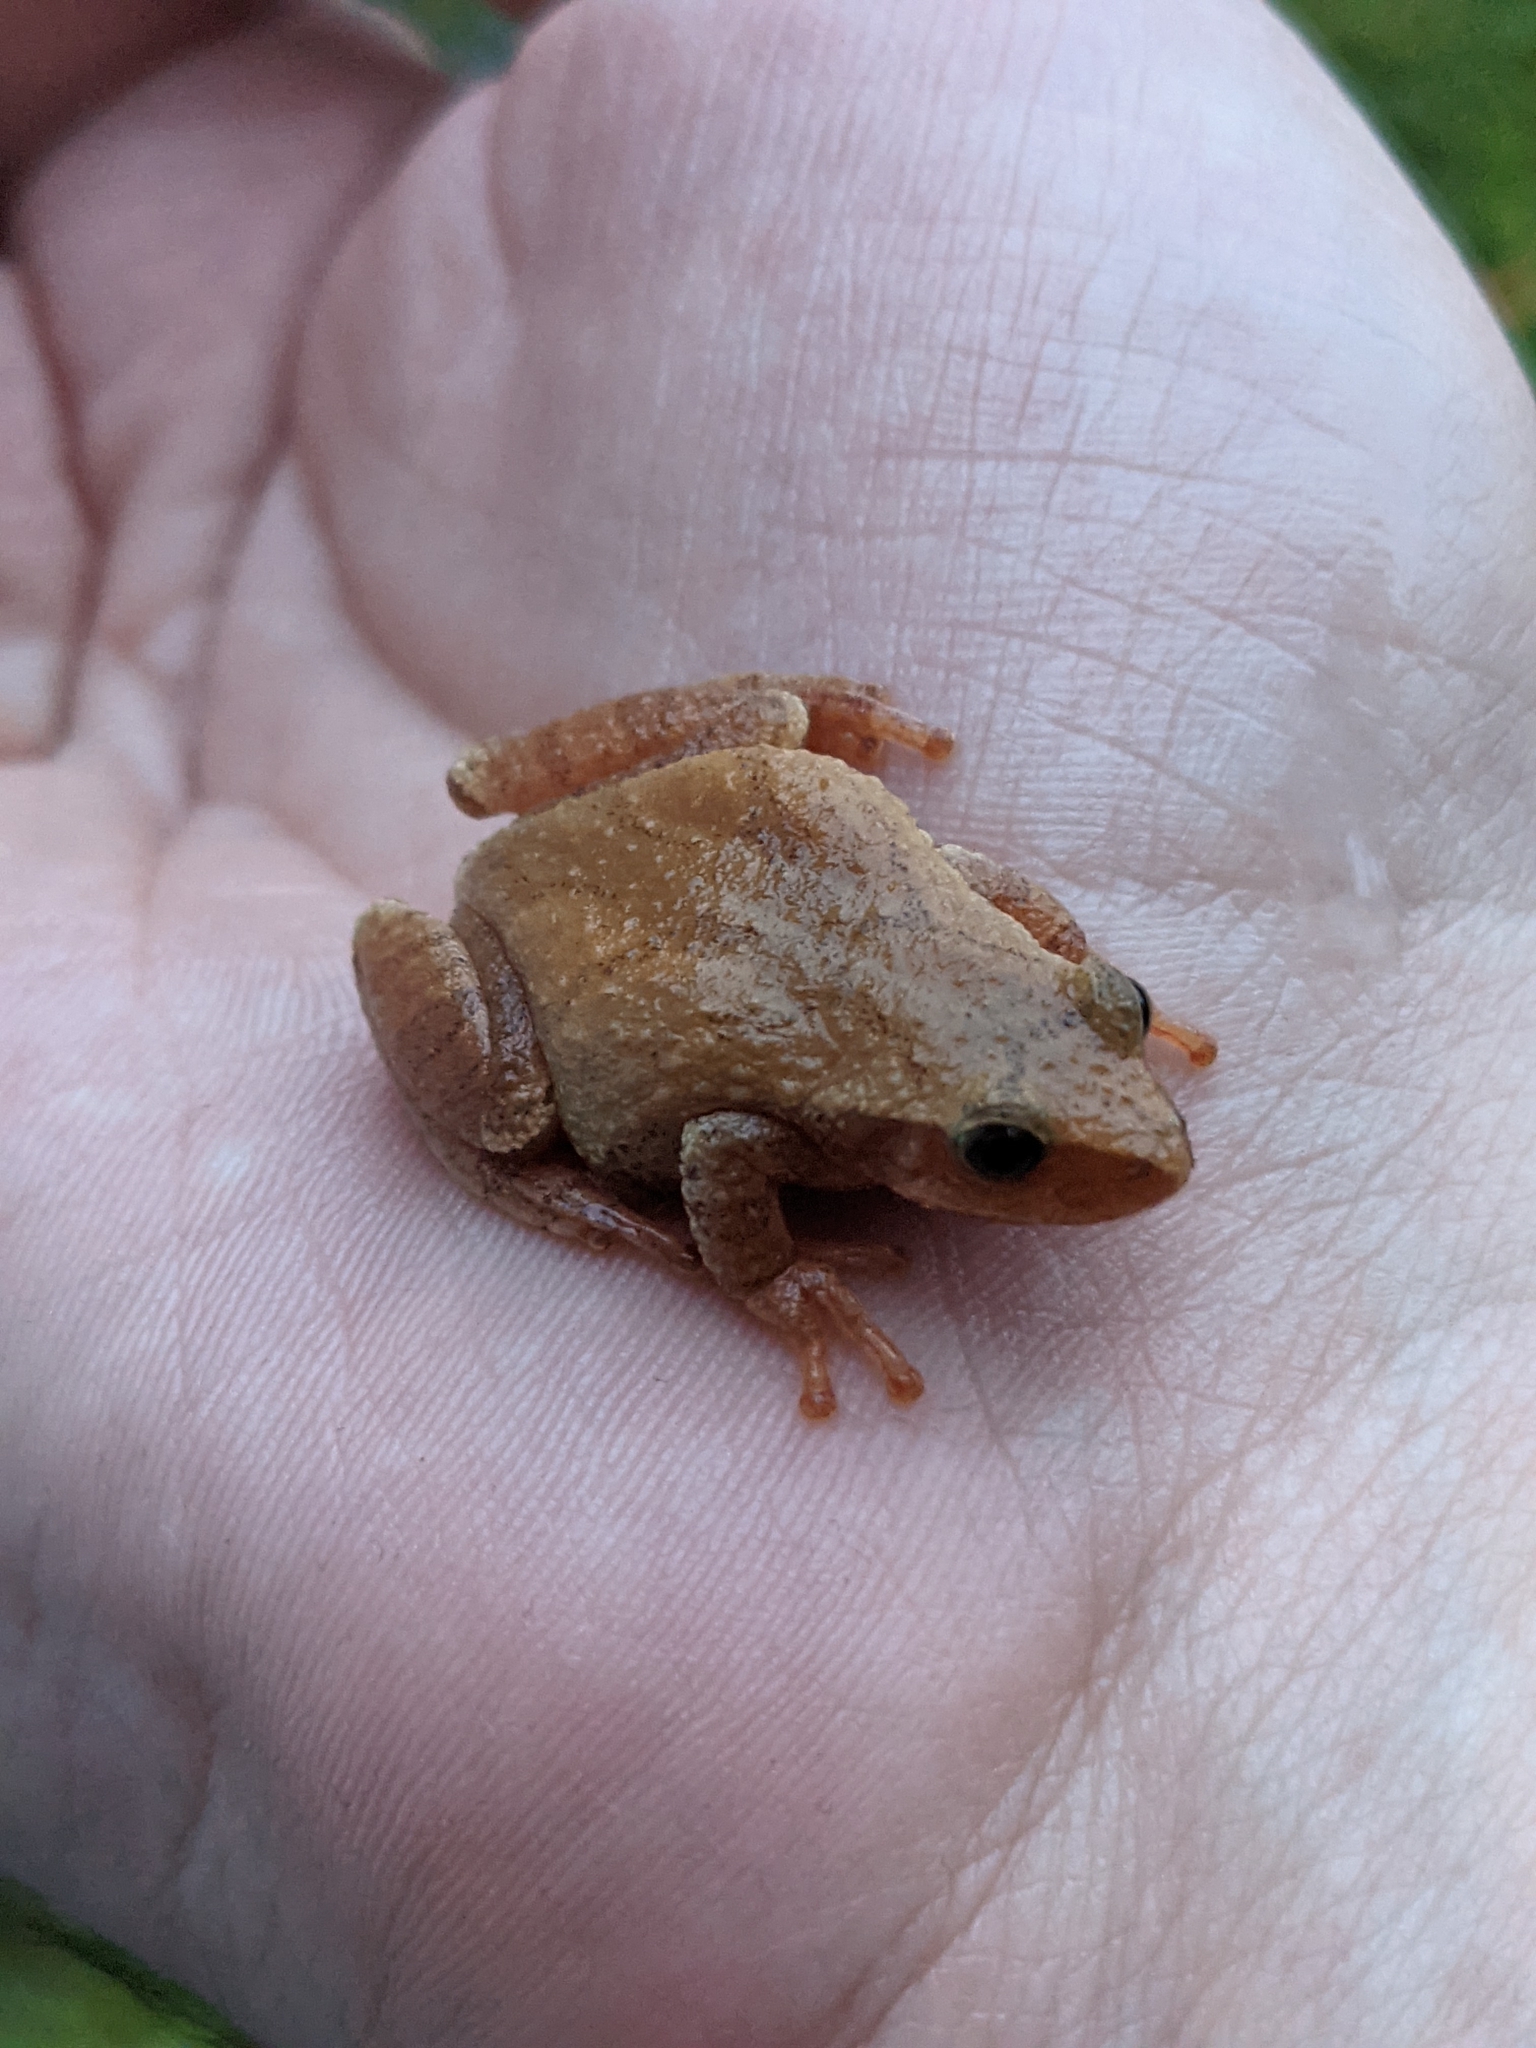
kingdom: Animalia
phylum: Chordata
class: Amphibia
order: Anura
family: Hylidae
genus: Pseudacris
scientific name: Pseudacris crucifer
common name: Spring peeper
